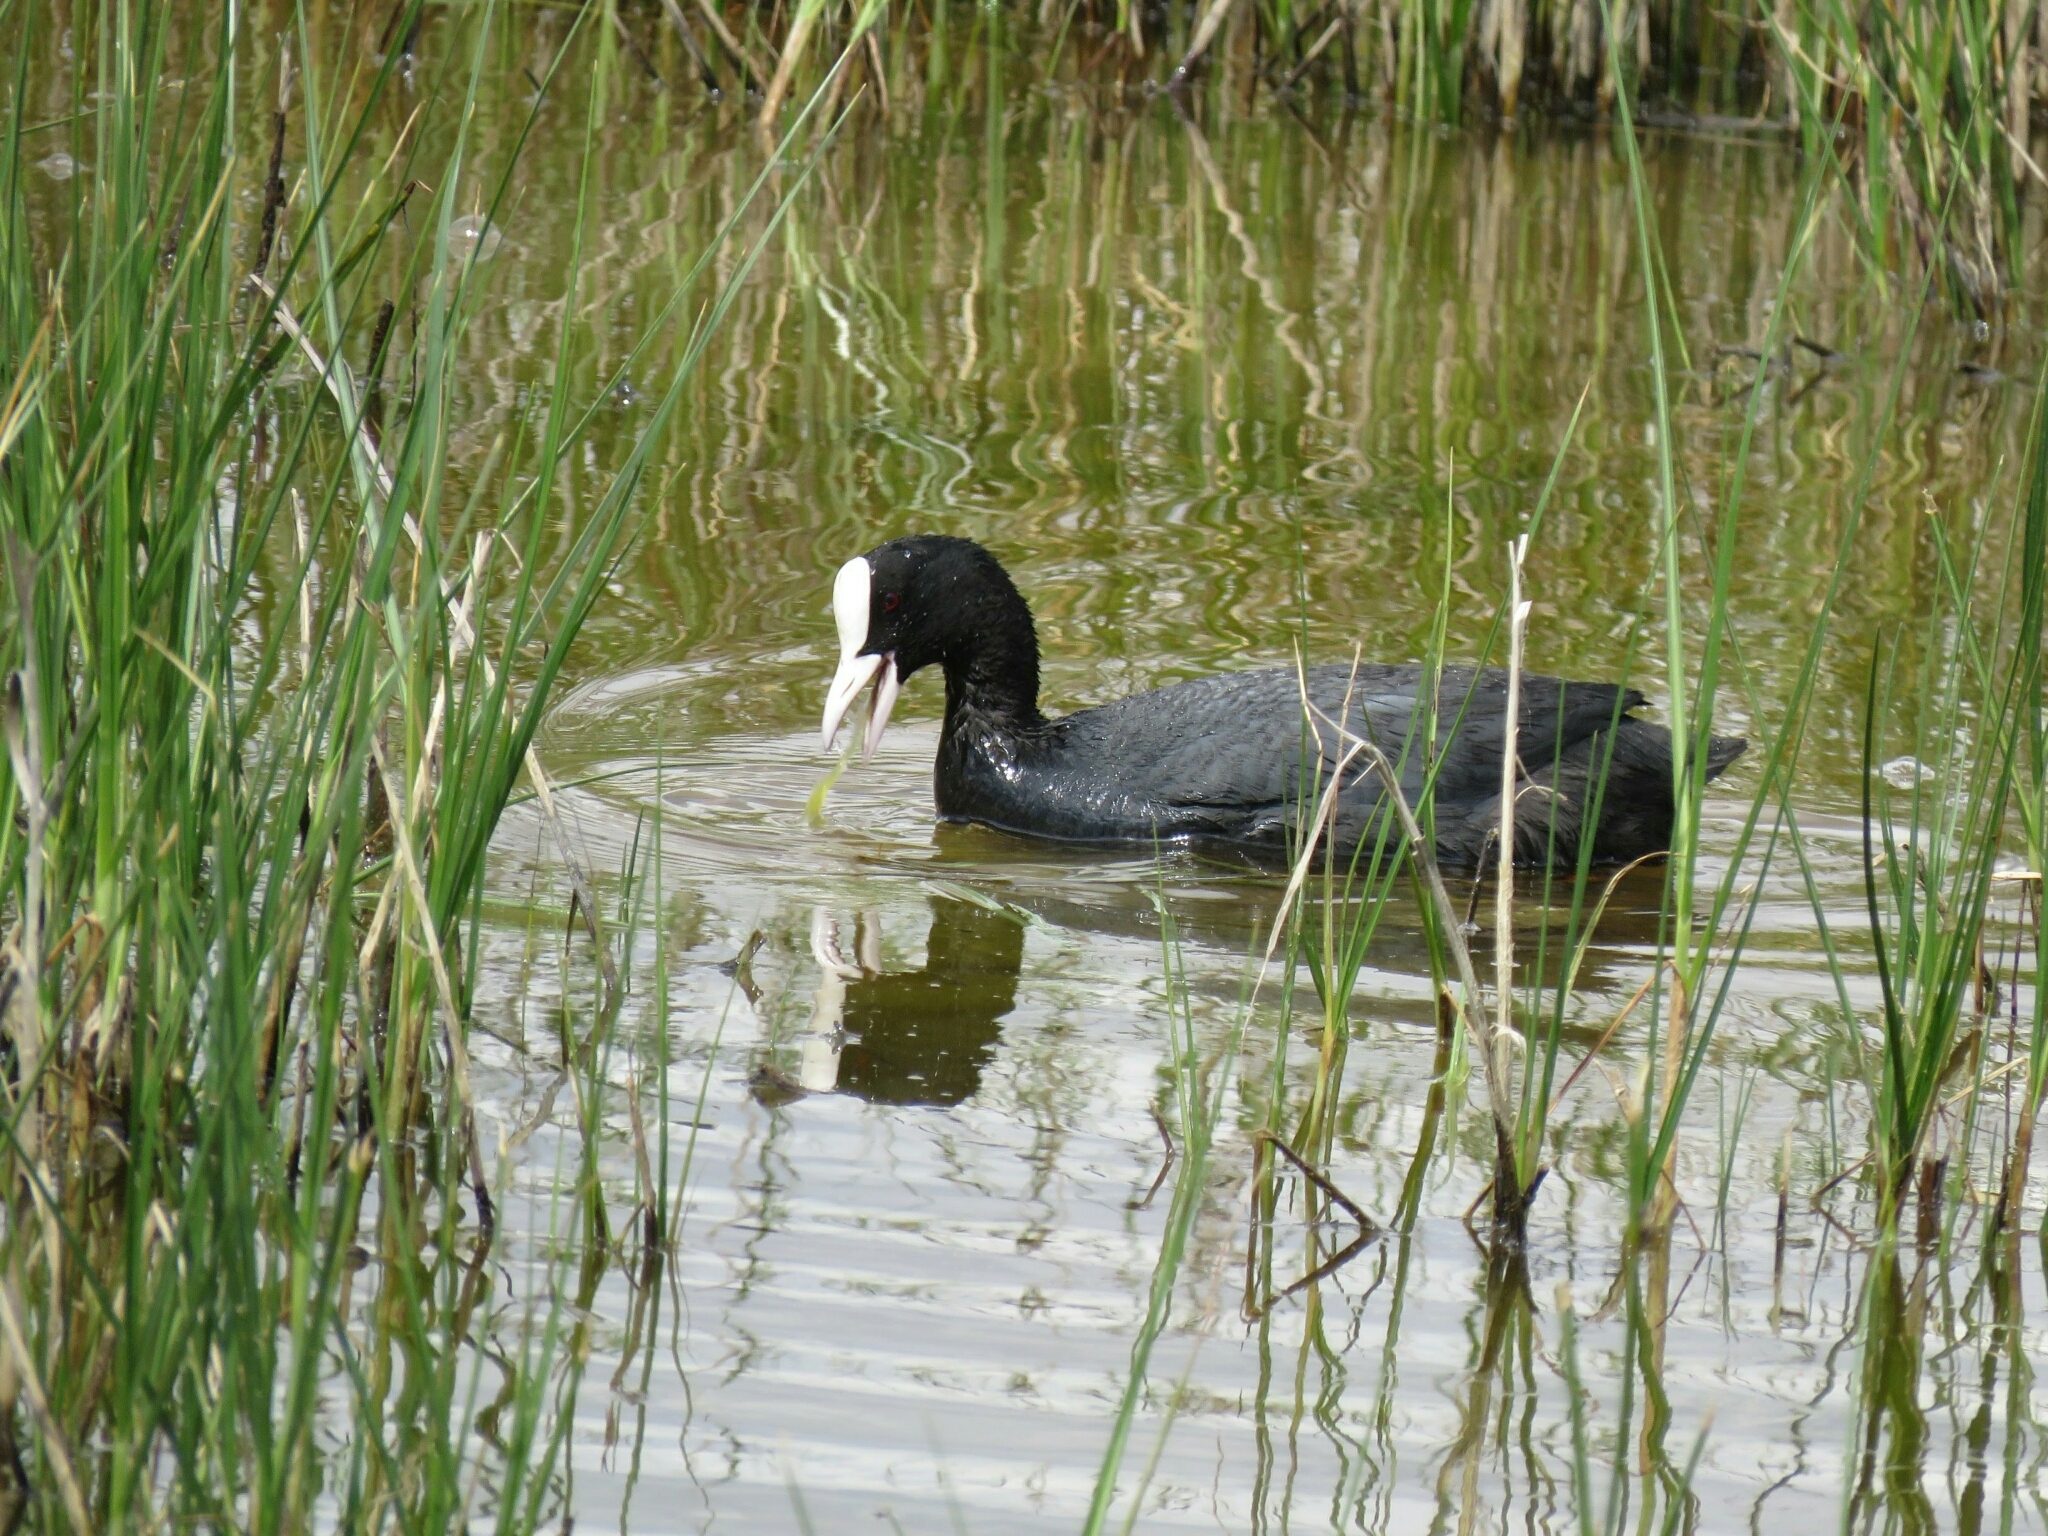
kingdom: Animalia
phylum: Chordata
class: Aves
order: Gruiformes
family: Rallidae
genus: Fulica
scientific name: Fulica atra
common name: Eurasian coot
